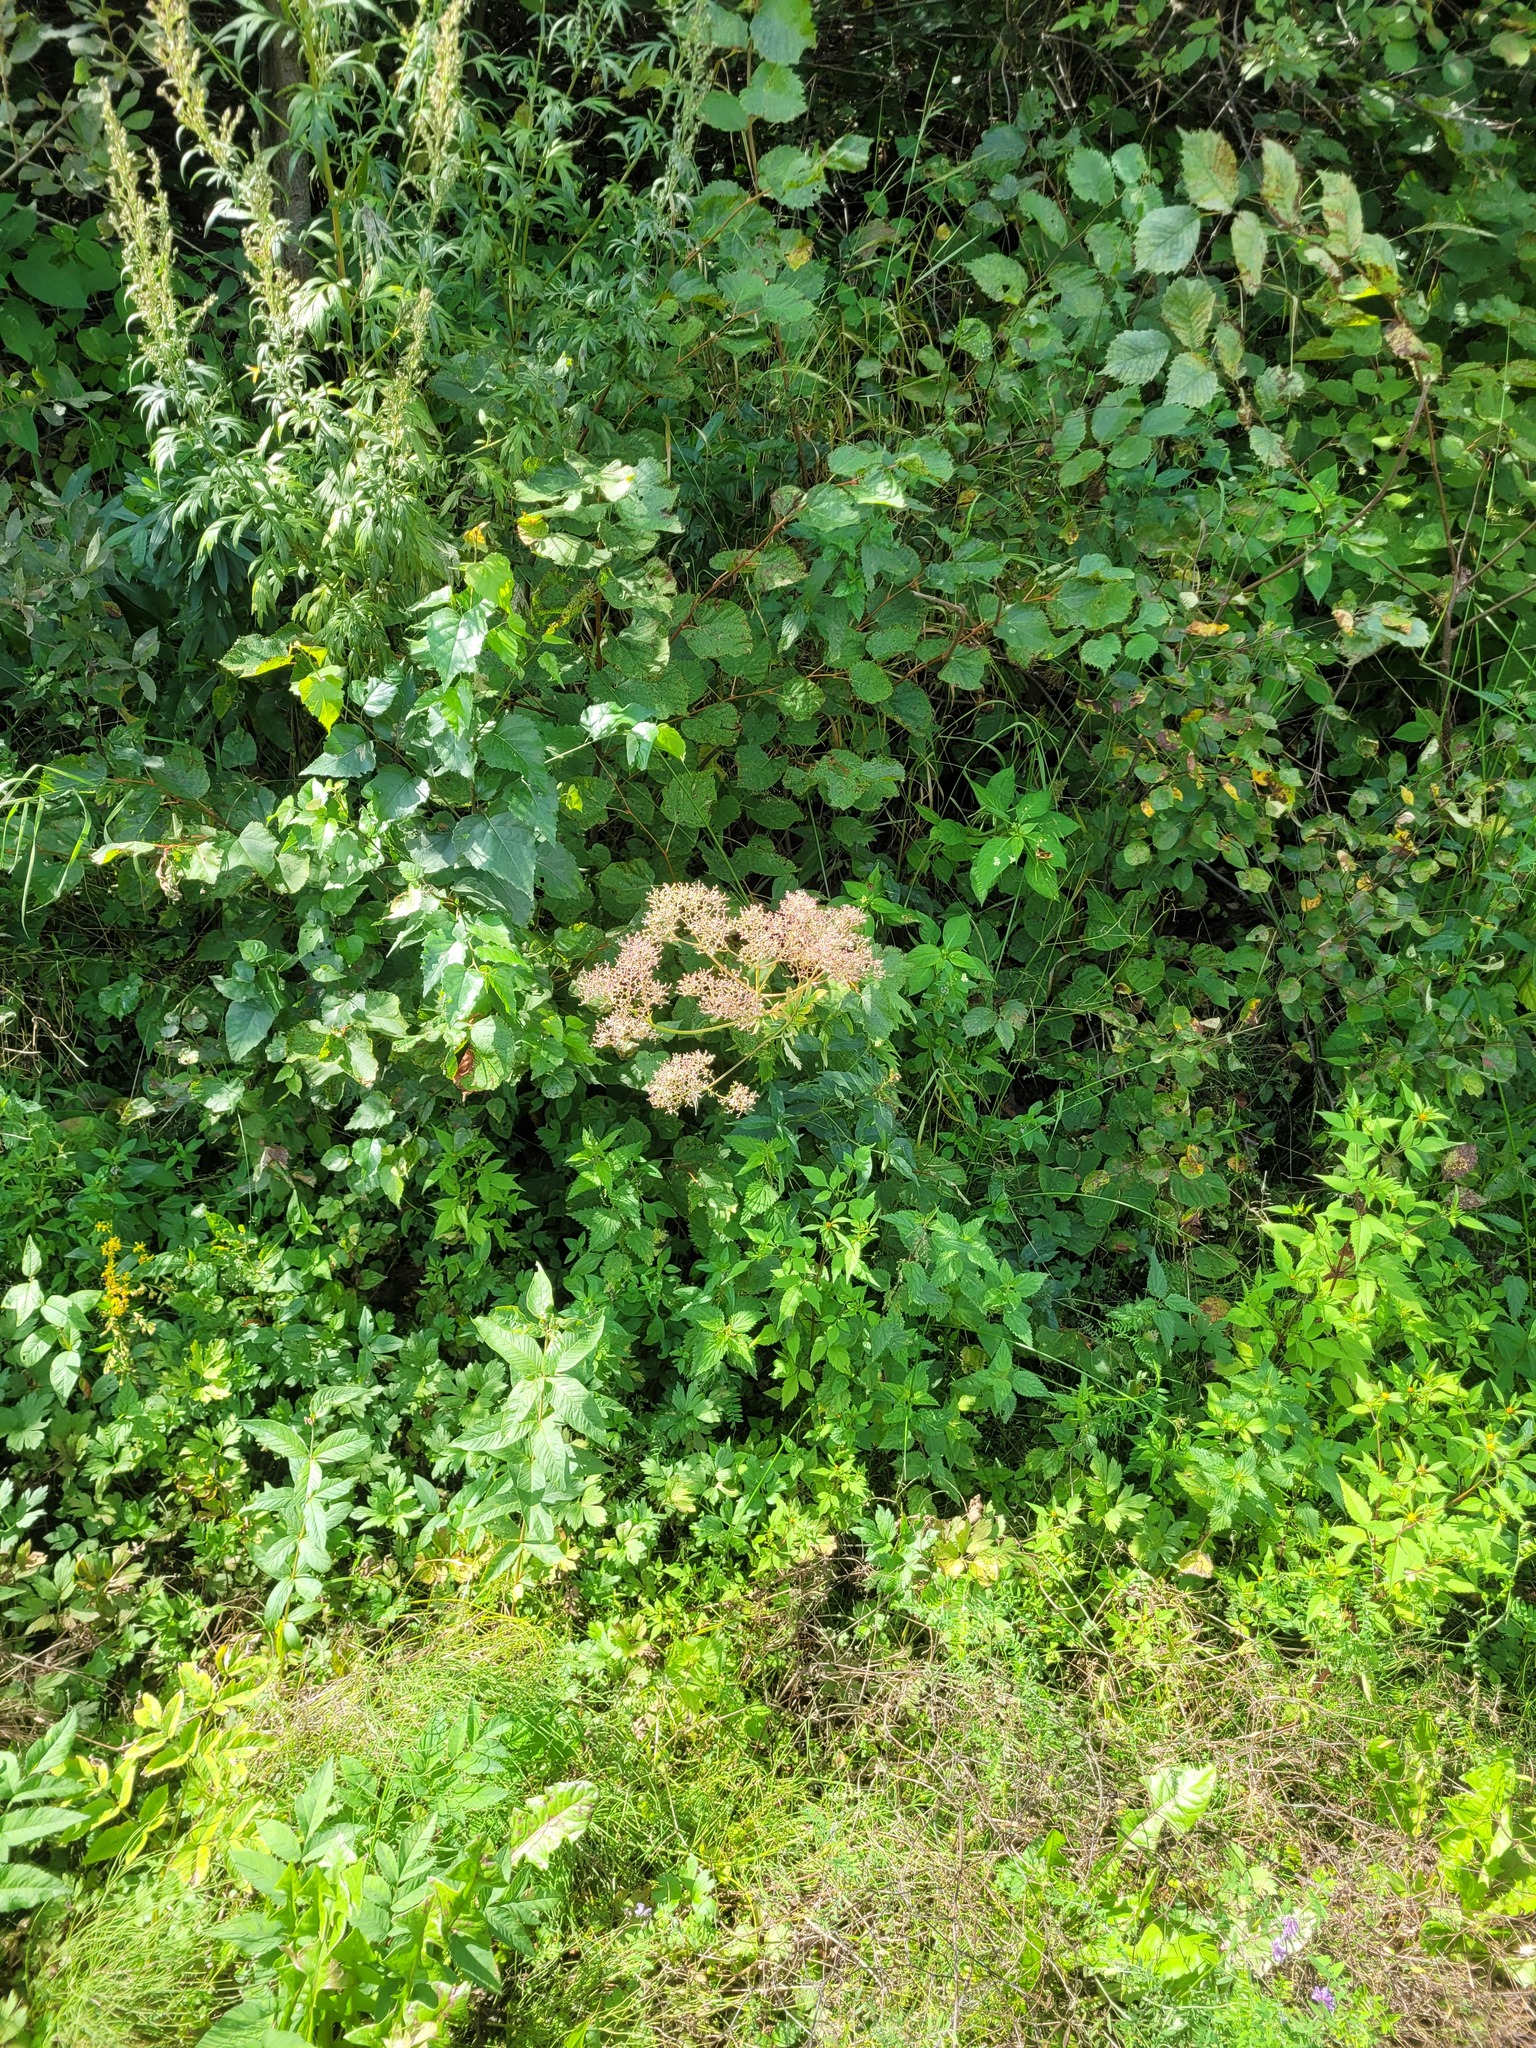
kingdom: Plantae
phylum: Tracheophyta
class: Magnoliopsida
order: Dipsacales
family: Caprifoliaceae
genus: Valeriana
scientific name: Valeriana officinalis
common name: Common valerian
